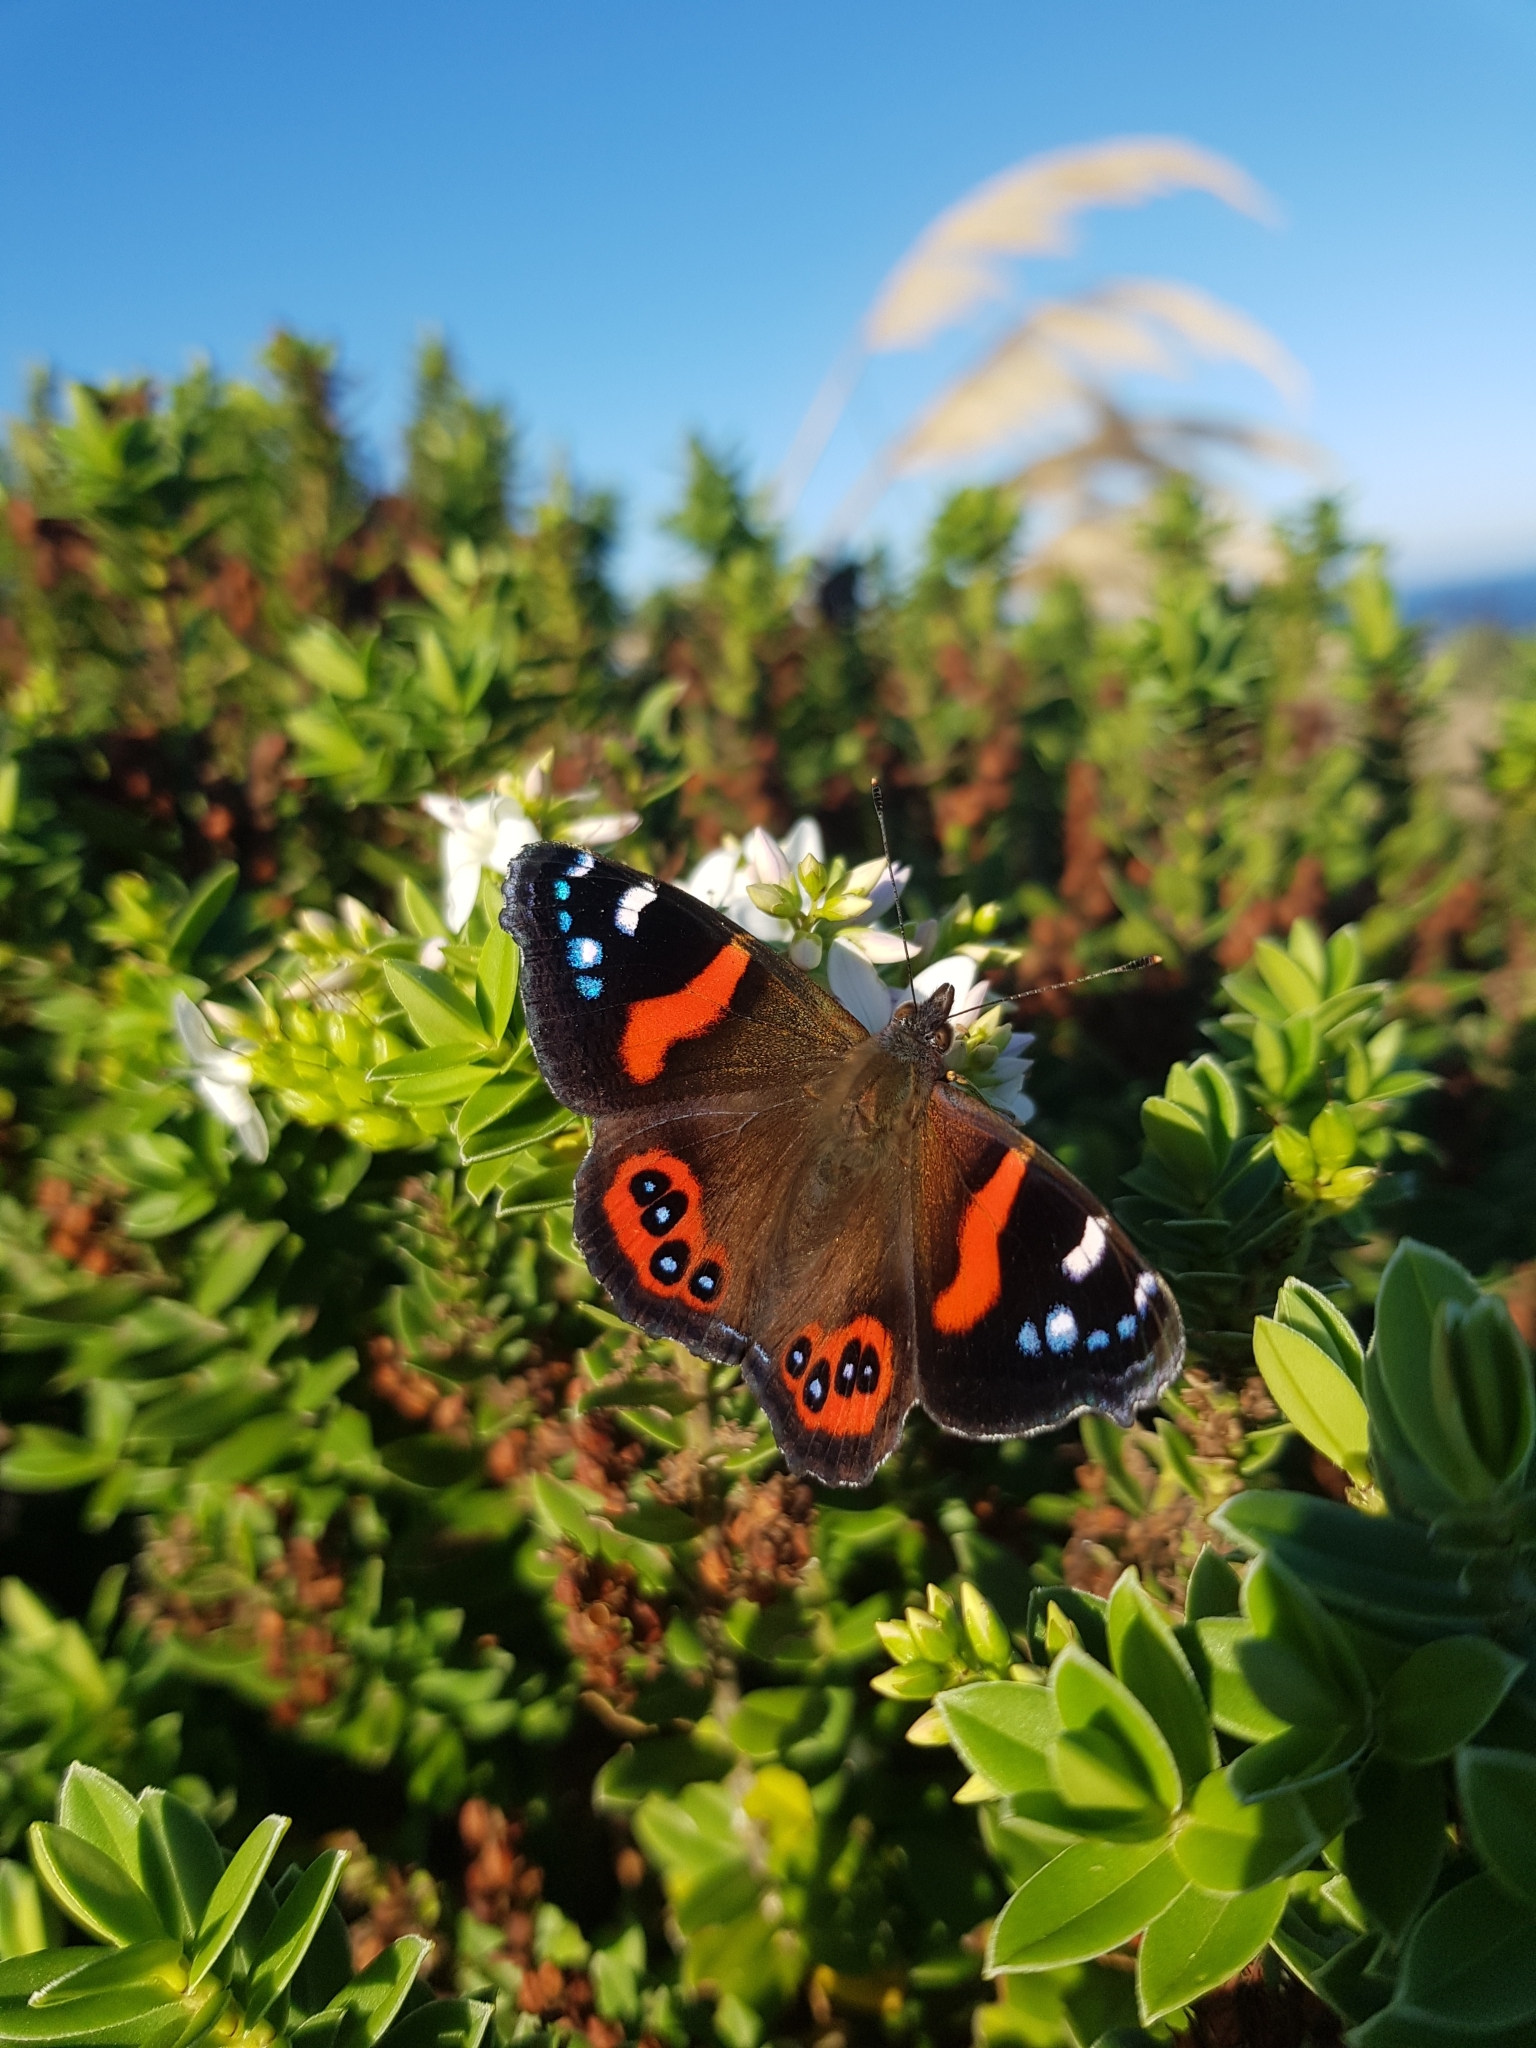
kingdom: Animalia
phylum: Arthropoda
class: Insecta
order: Lepidoptera
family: Nymphalidae
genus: Vanessa
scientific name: Vanessa gonerilla
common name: New zealand red admiral
